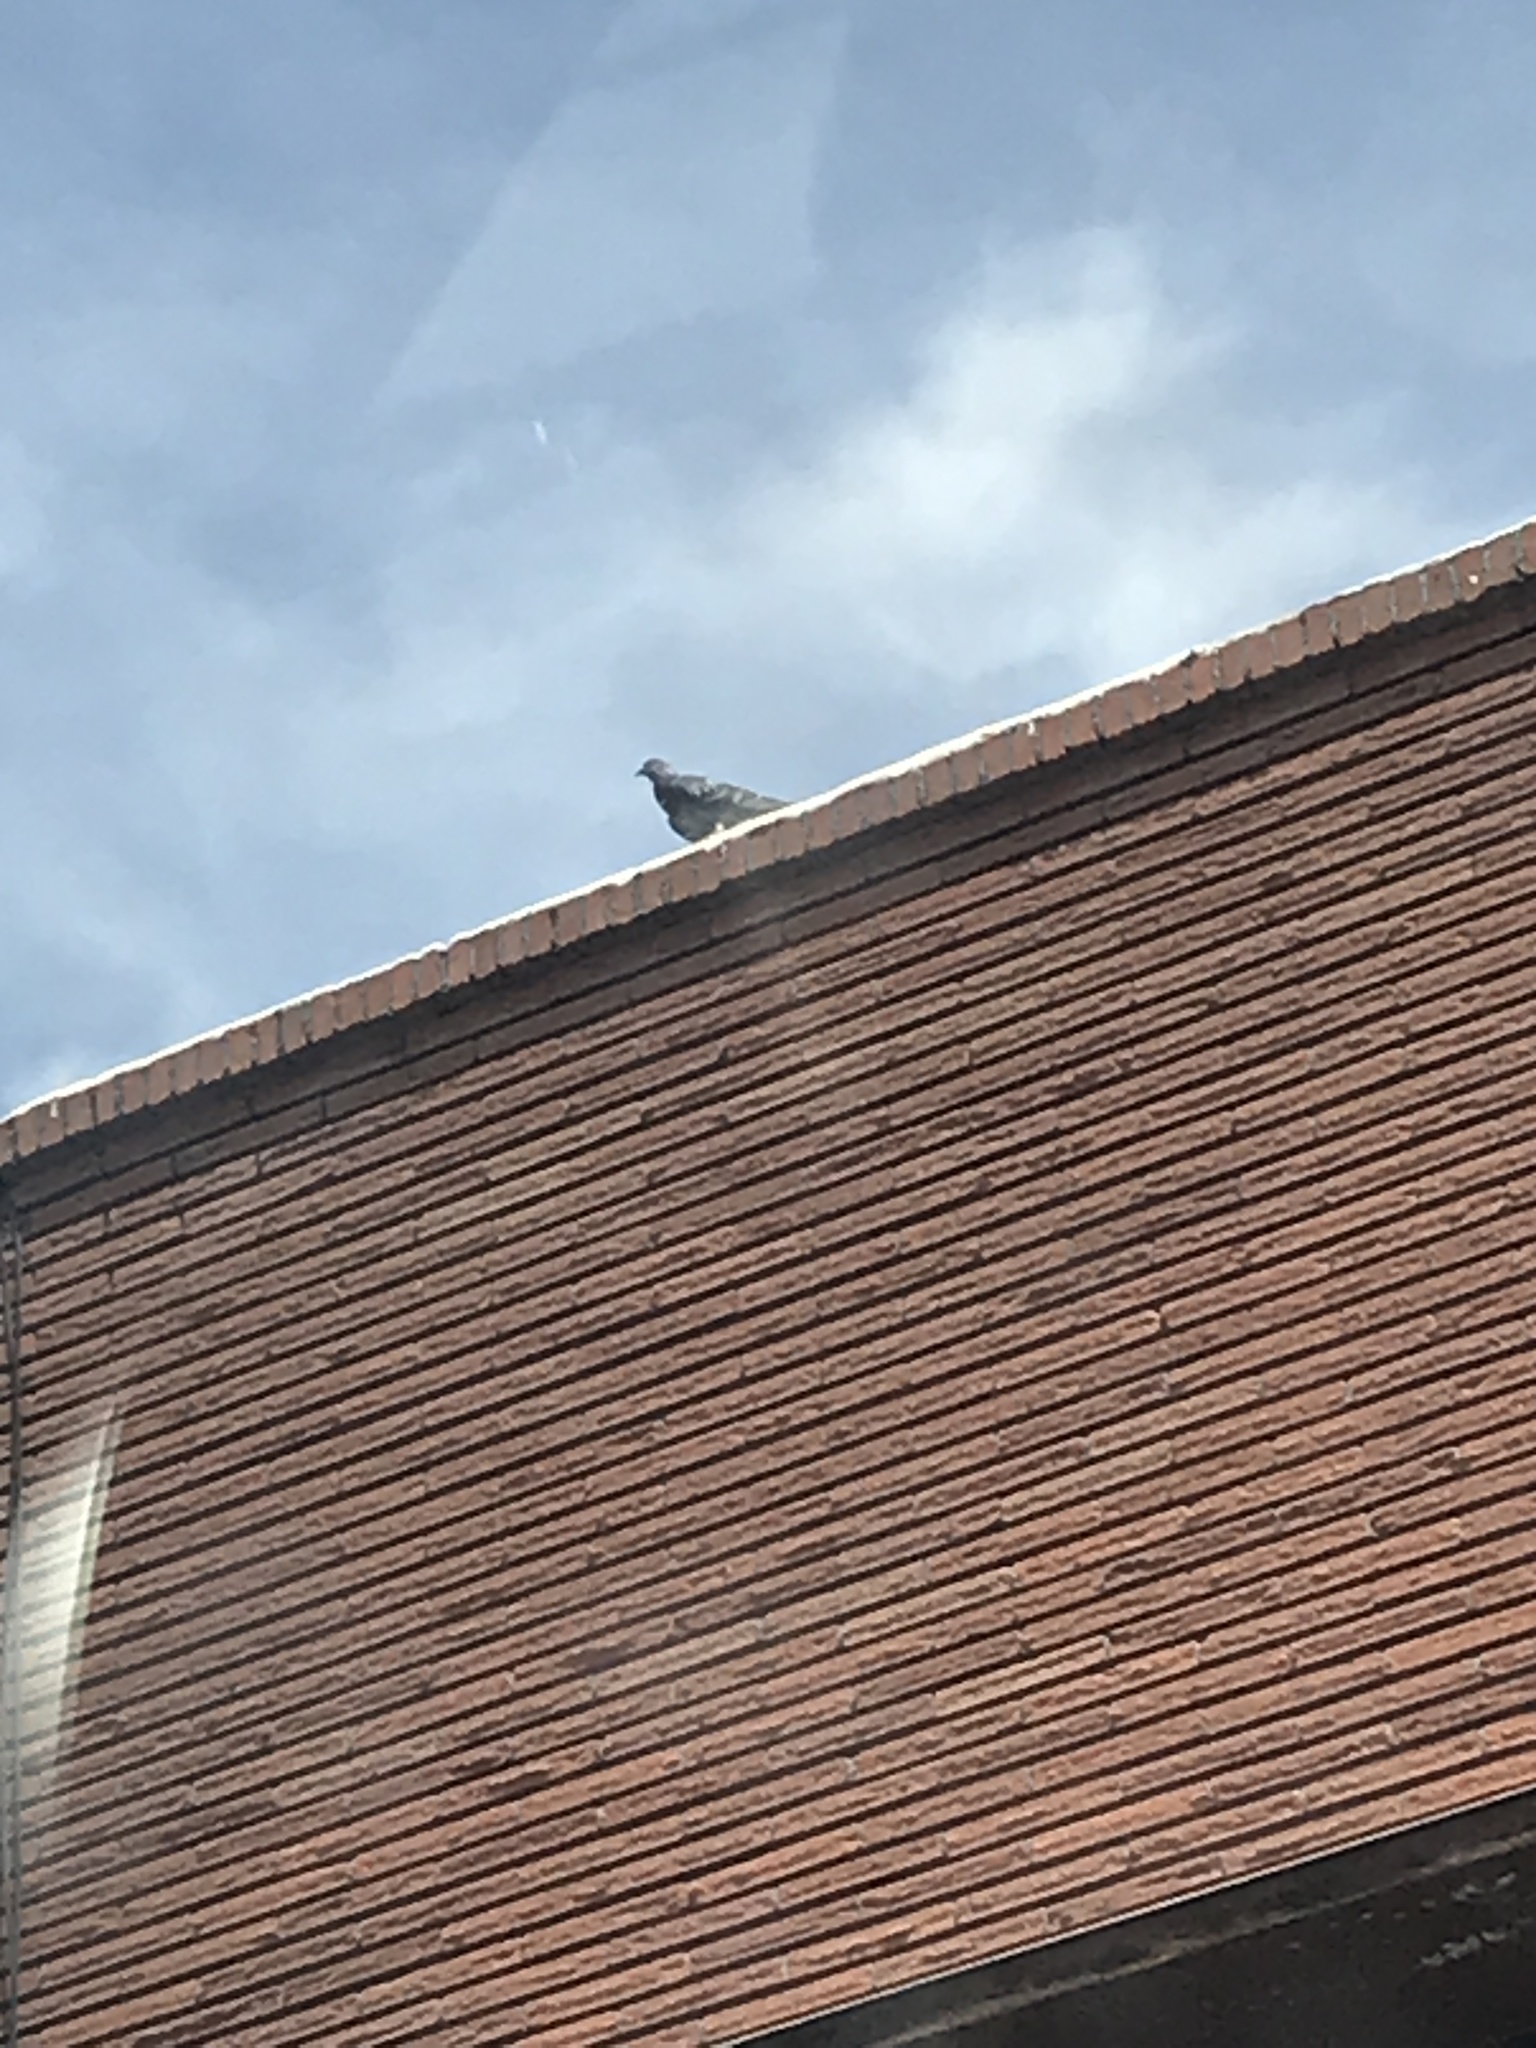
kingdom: Animalia
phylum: Chordata
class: Aves
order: Columbiformes
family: Columbidae
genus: Columba
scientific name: Columba livia
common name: Rock pigeon
